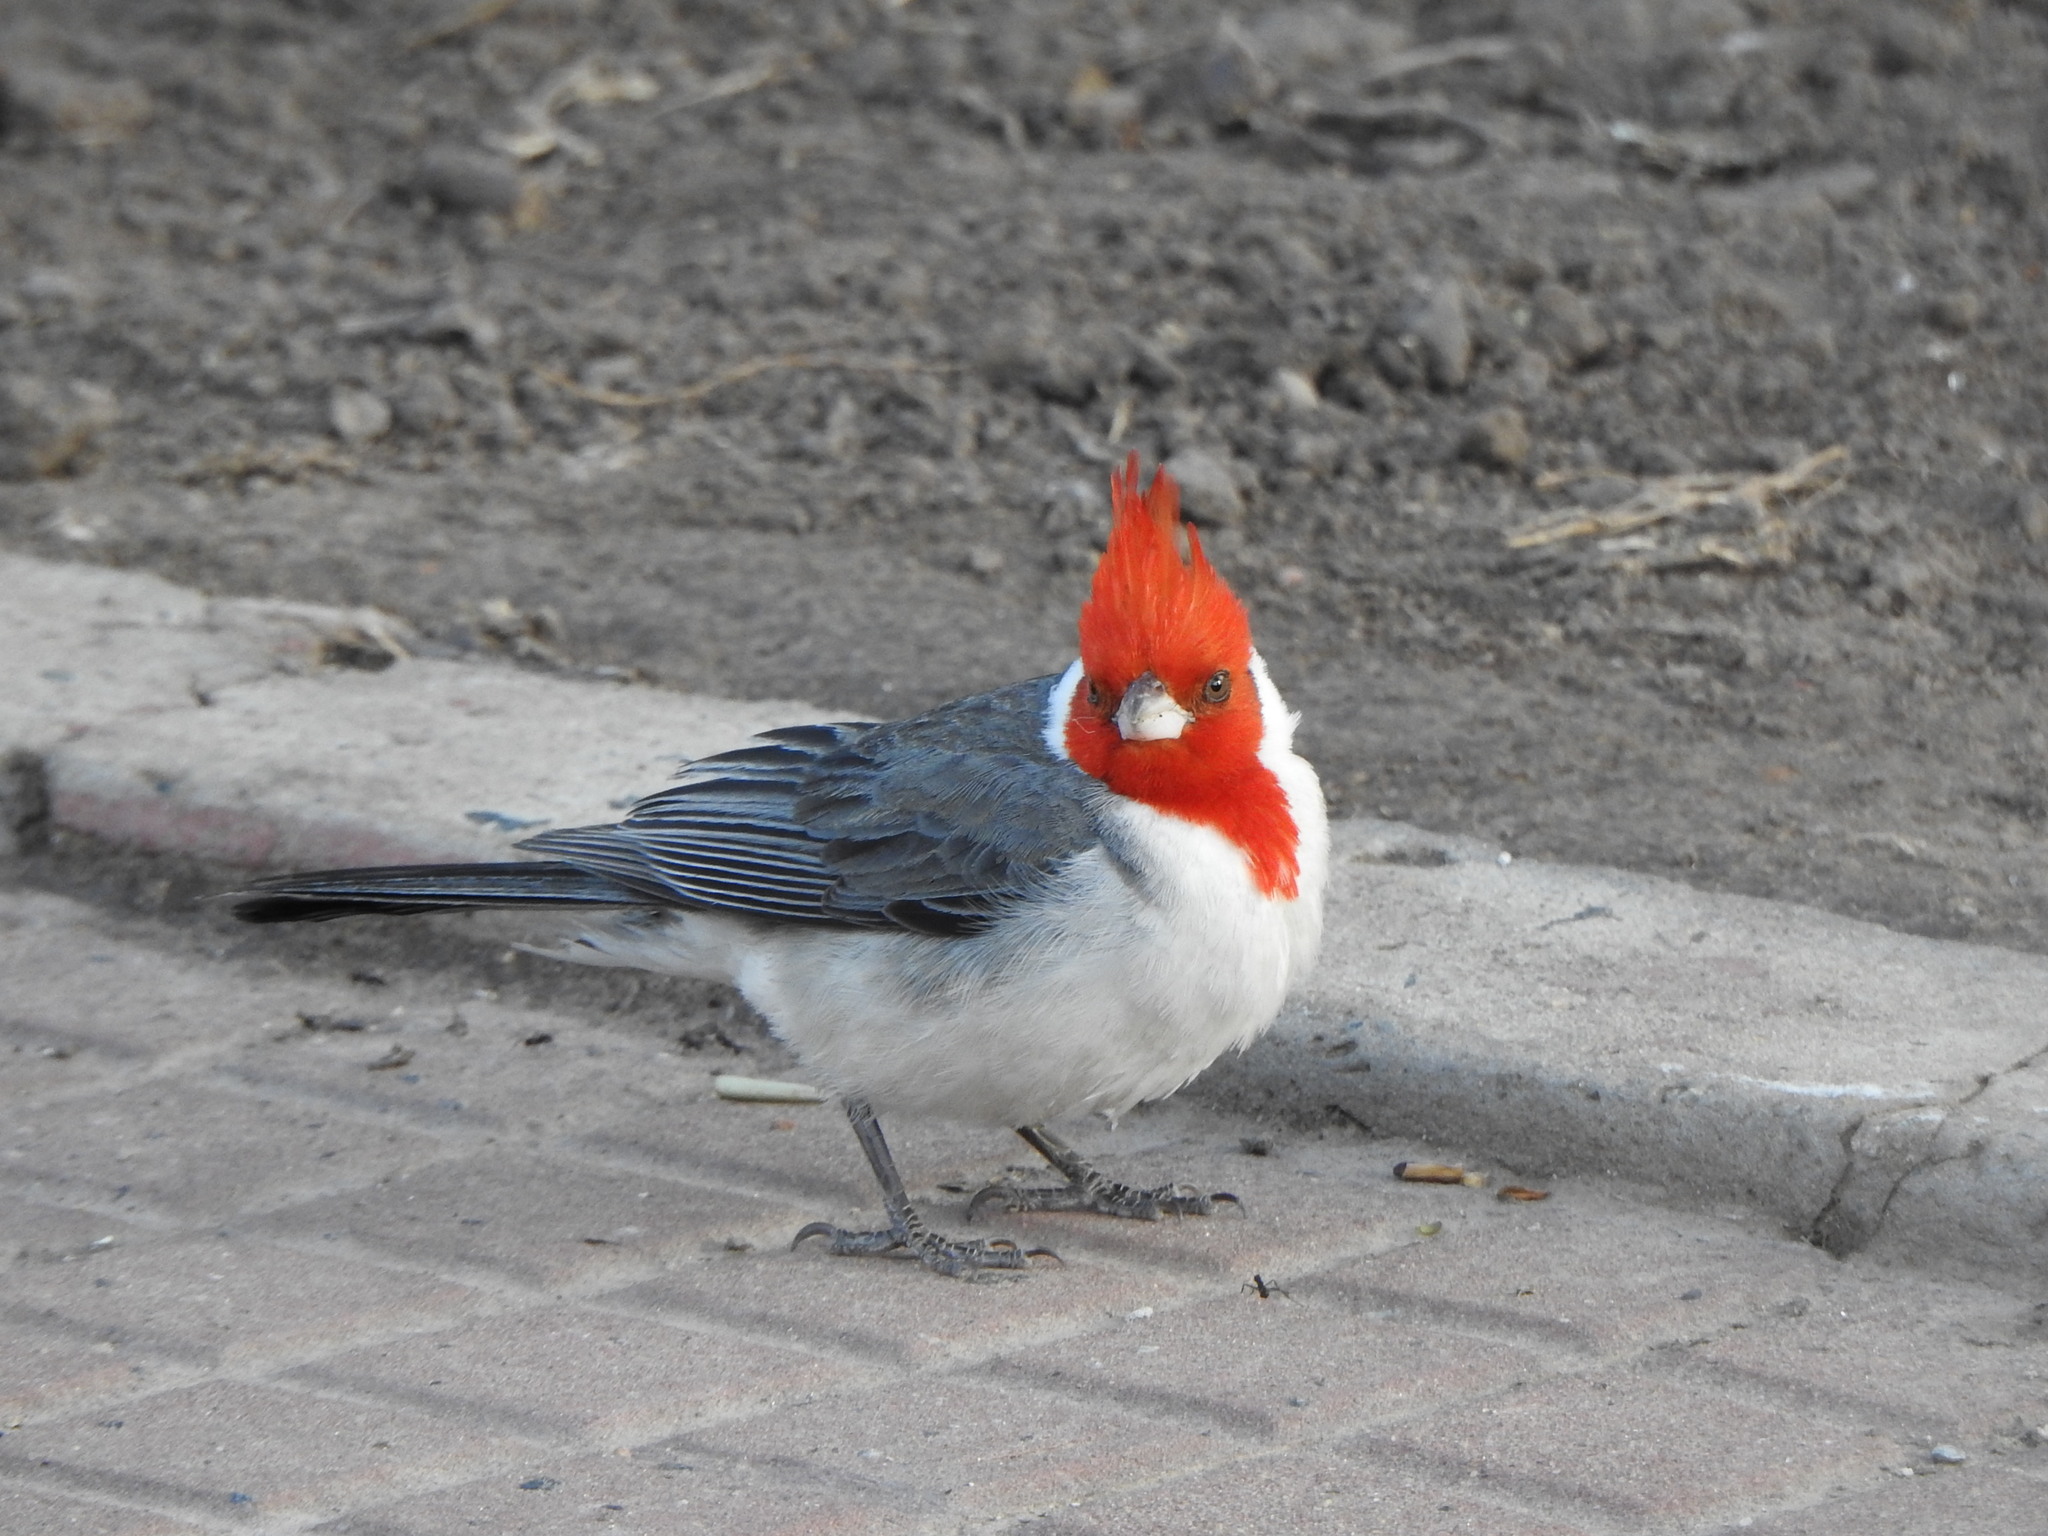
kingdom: Animalia
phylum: Chordata
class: Aves
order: Passeriformes
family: Thraupidae
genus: Paroaria
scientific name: Paroaria coronata
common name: Red-crested cardinal
